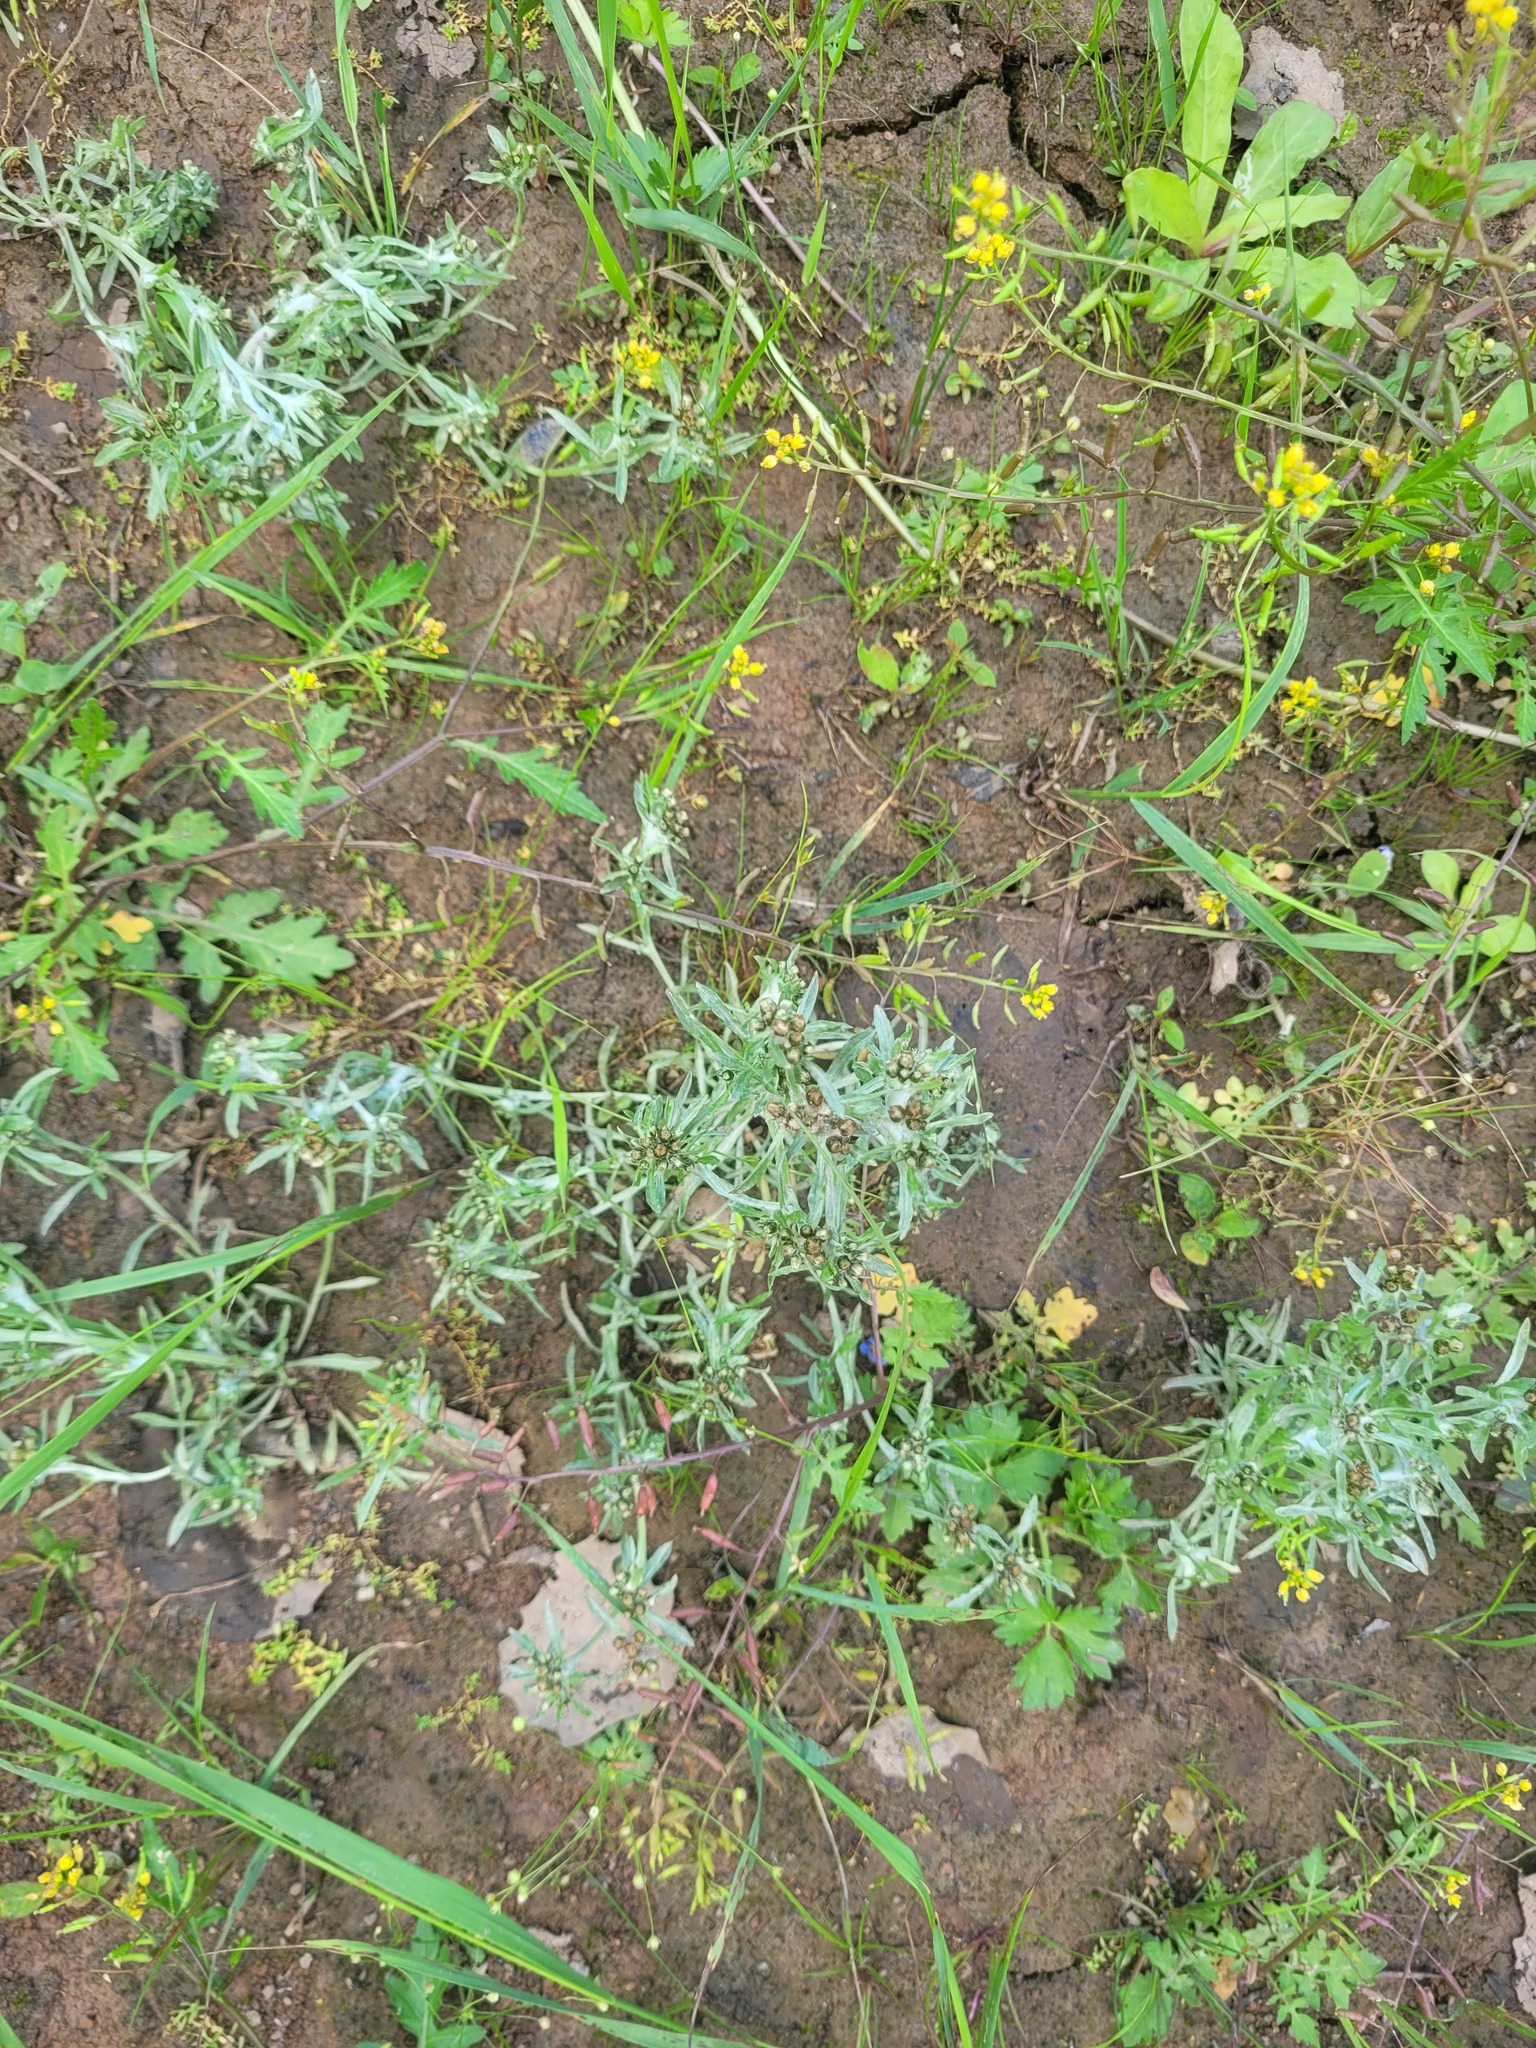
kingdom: Plantae
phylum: Tracheophyta
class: Magnoliopsida
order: Asterales
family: Asteraceae
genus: Gnaphalium
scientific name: Gnaphalium uliginosum
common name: Marsh cudweed
